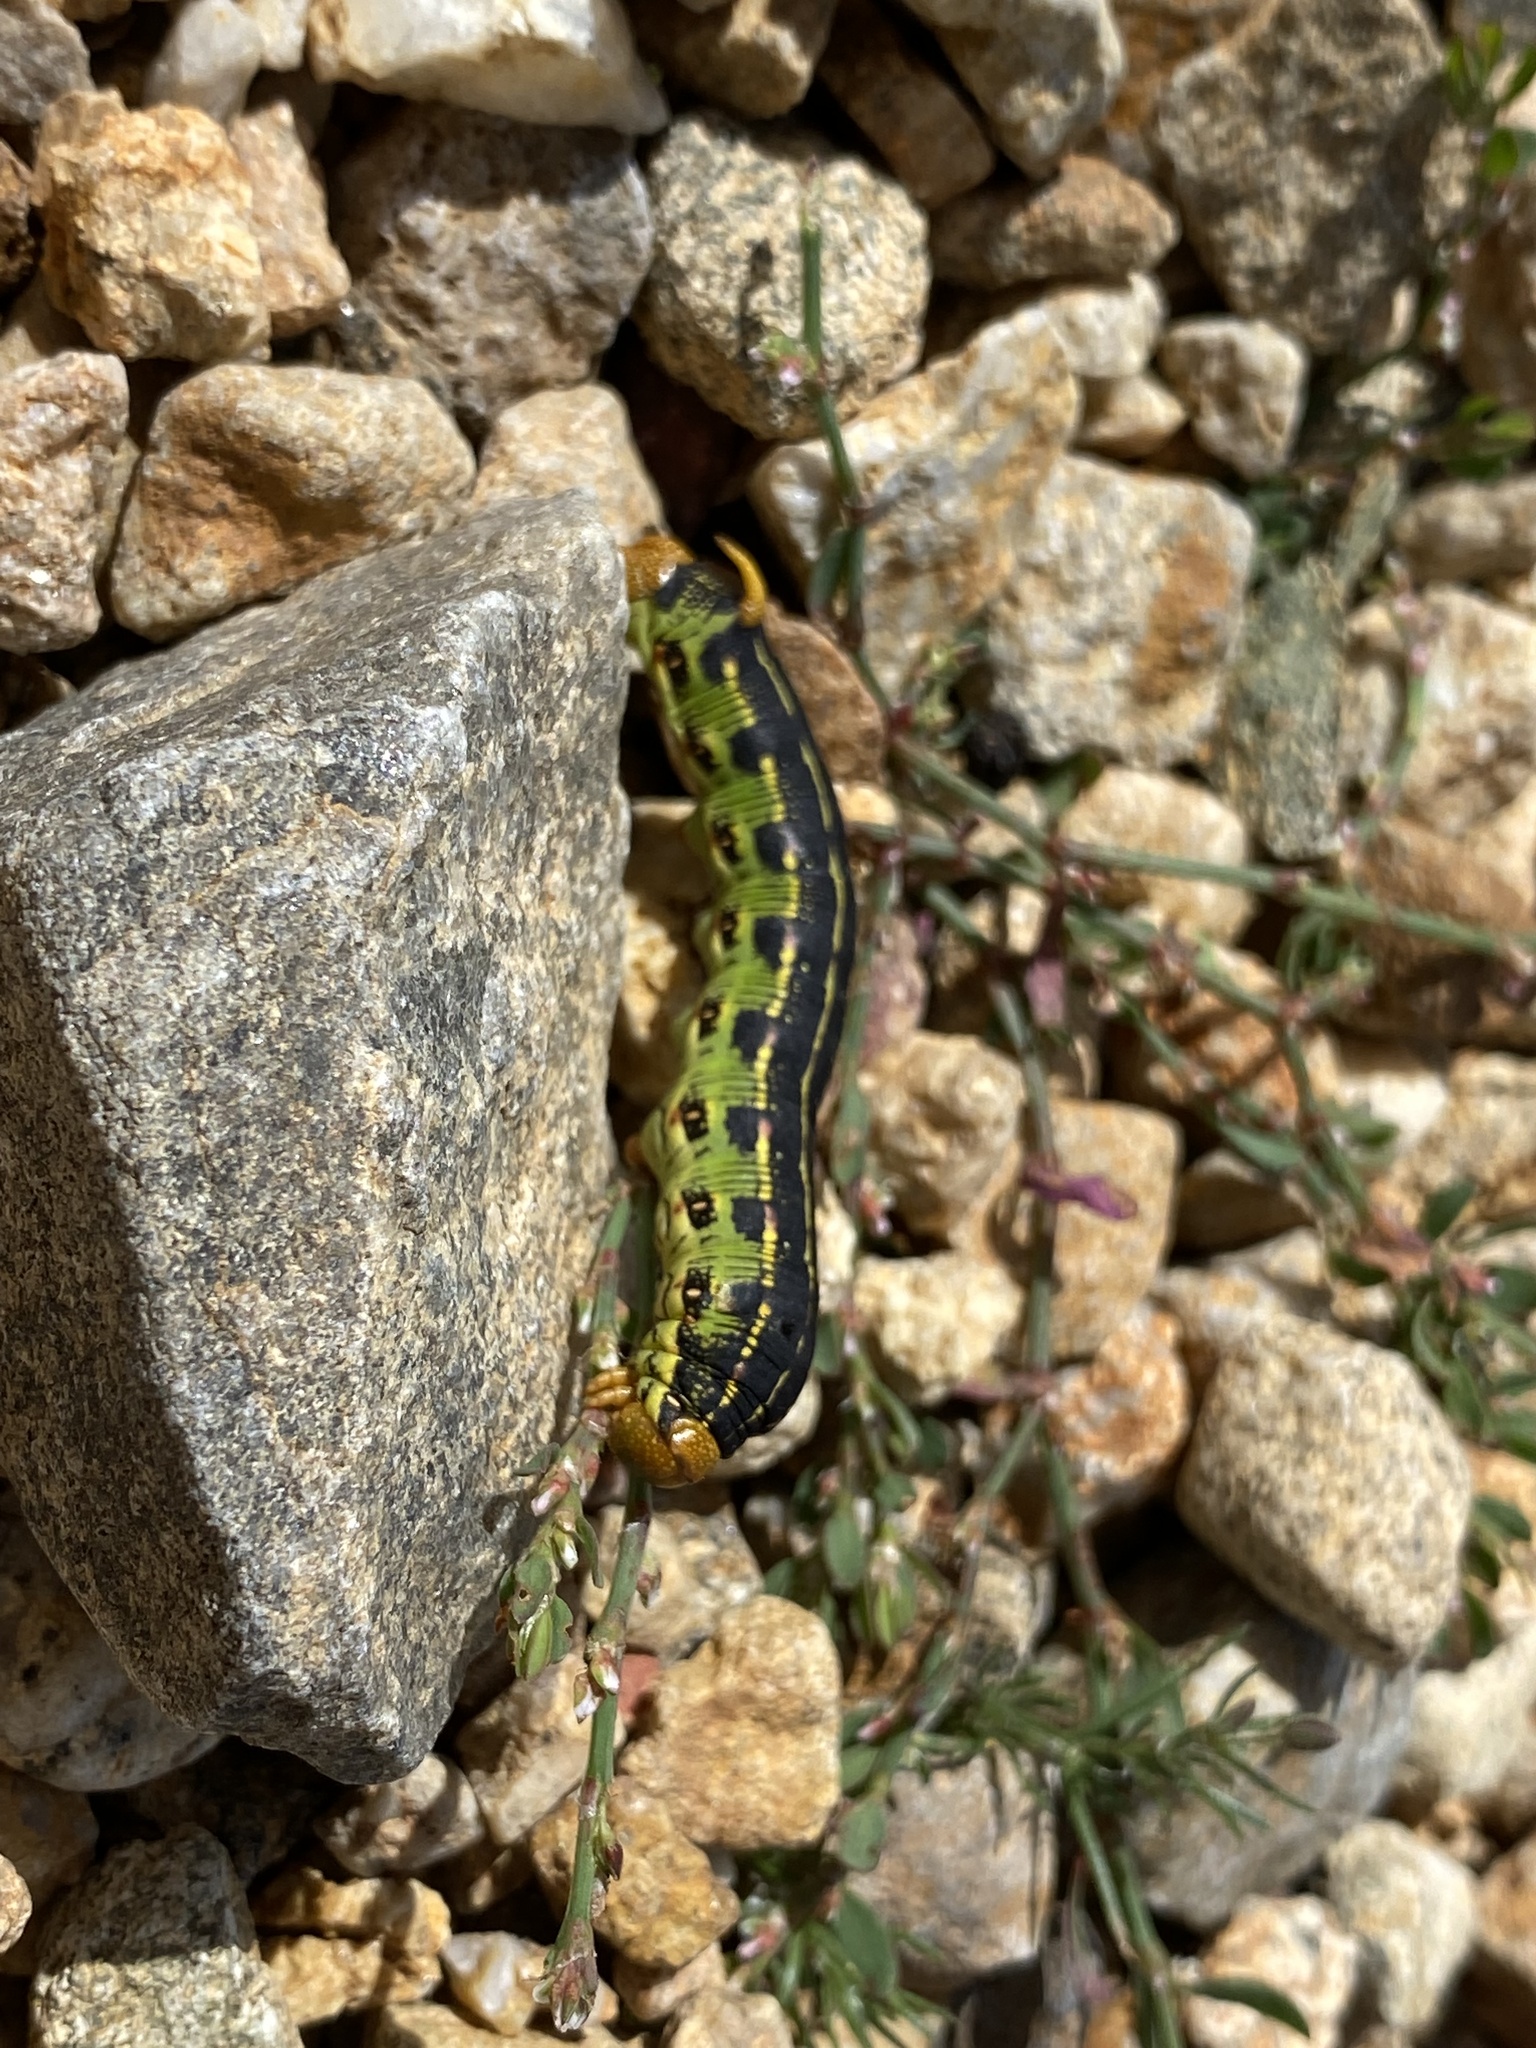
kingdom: Animalia
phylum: Arthropoda
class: Insecta
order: Lepidoptera
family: Sphingidae
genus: Hyles
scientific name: Hyles lineata
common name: White-lined sphinx
